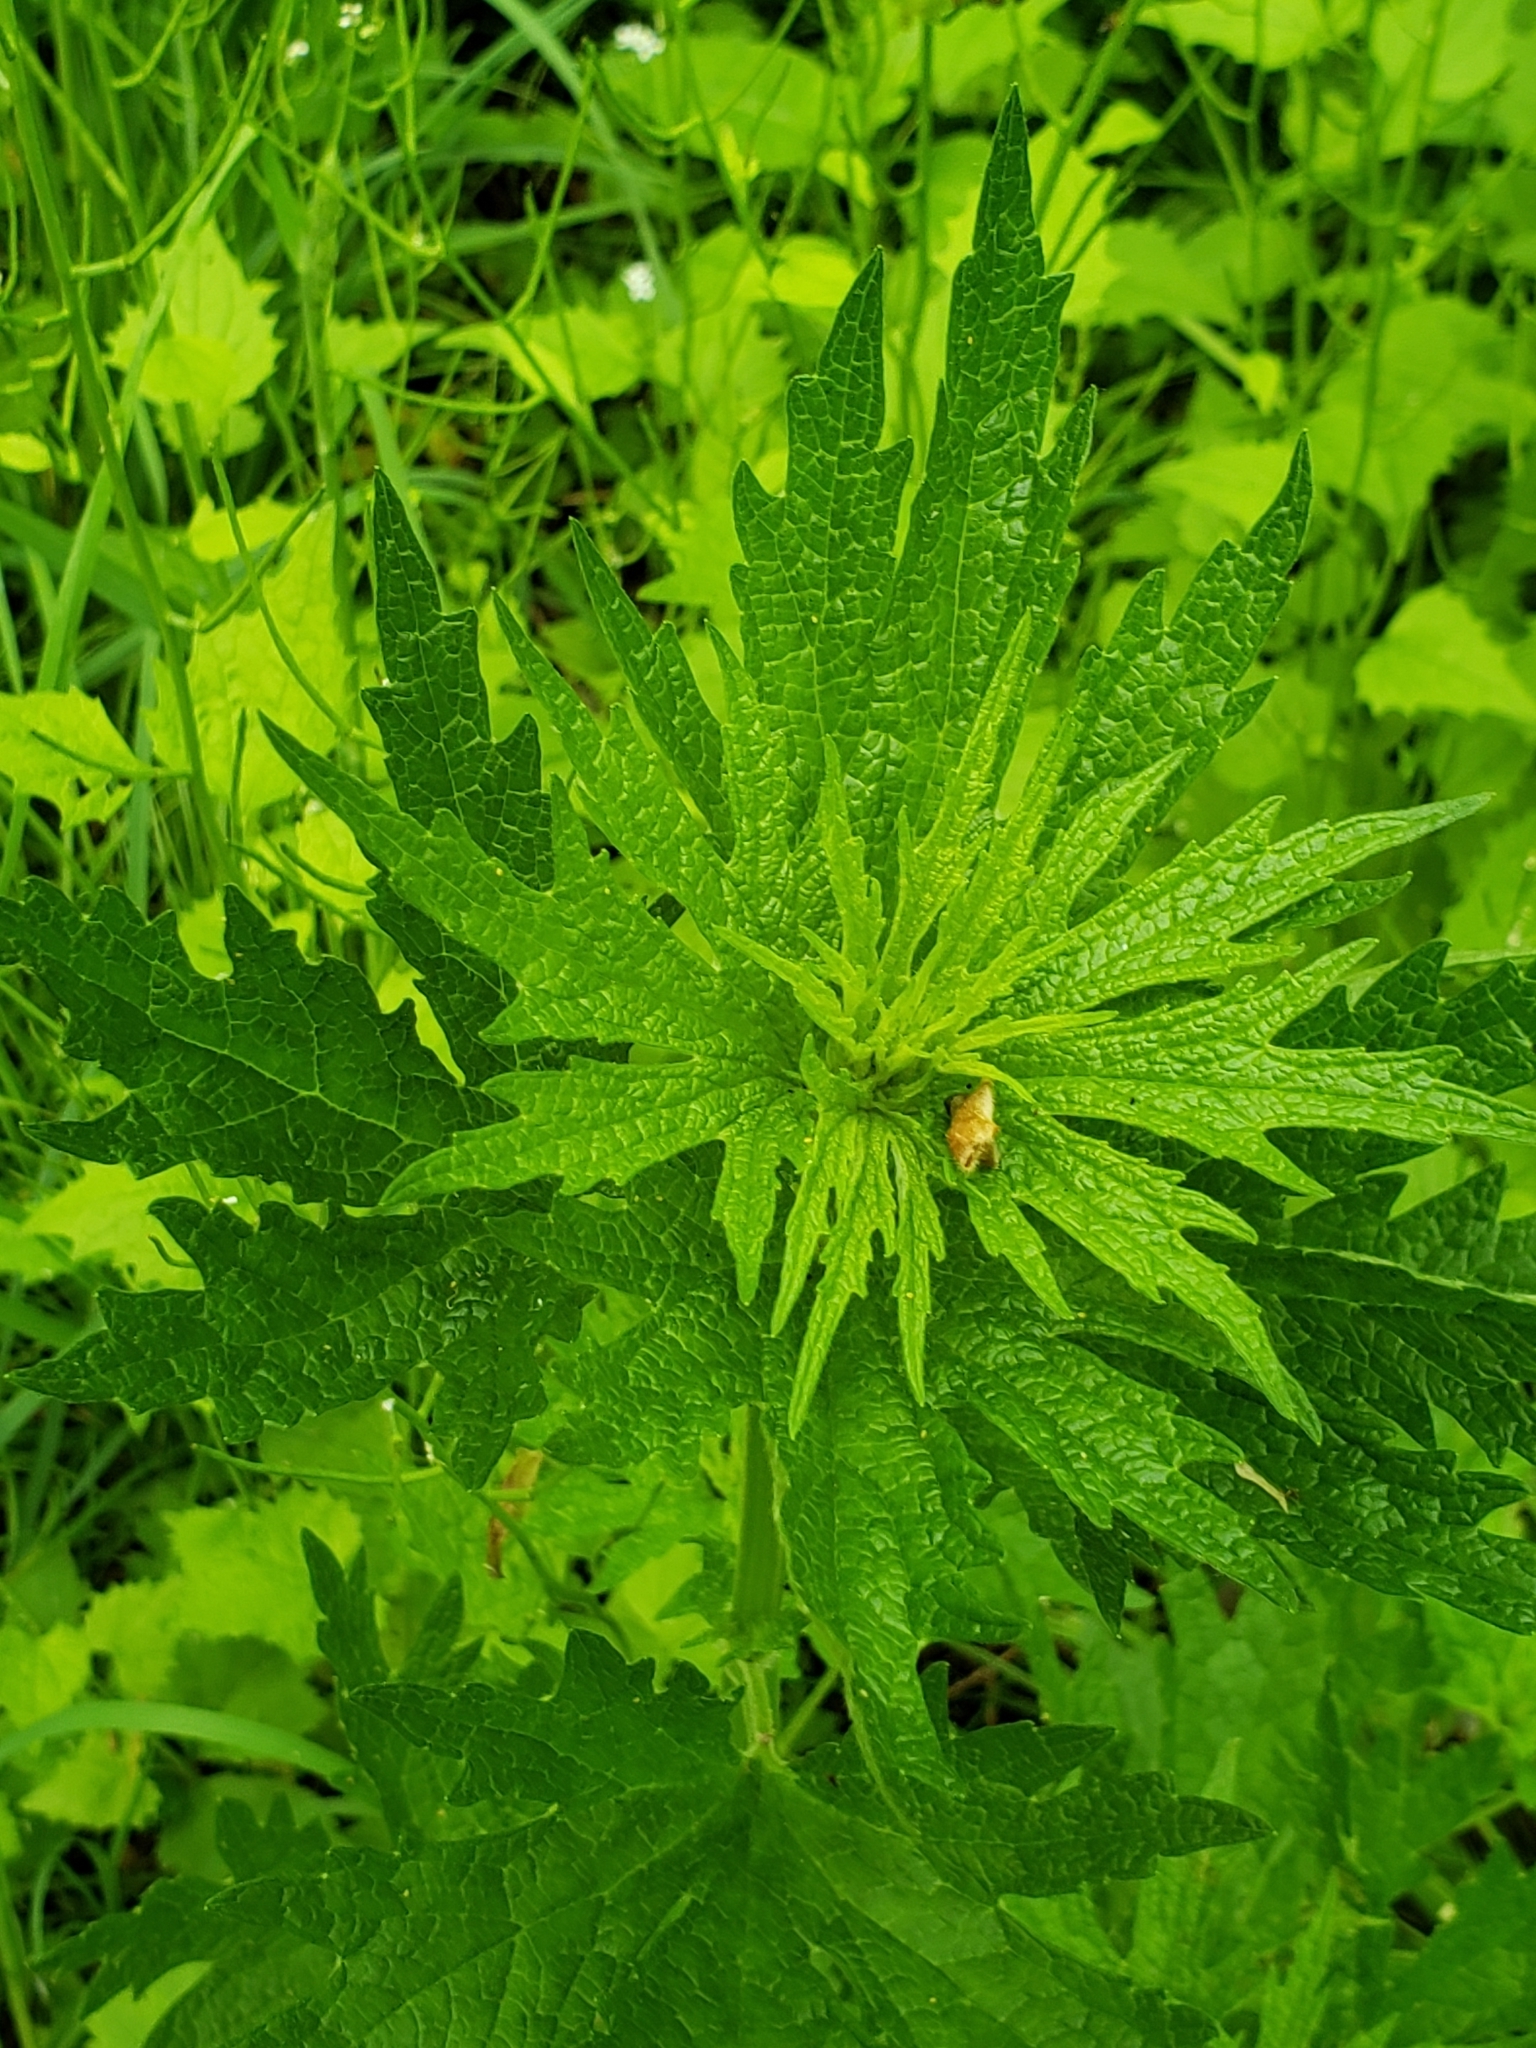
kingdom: Plantae
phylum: Tracheophyta
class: Magnoliopsida
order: Lamiales
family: Lamiaceae
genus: Leonurus
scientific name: Leonurus cardiaca
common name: Motherwort
